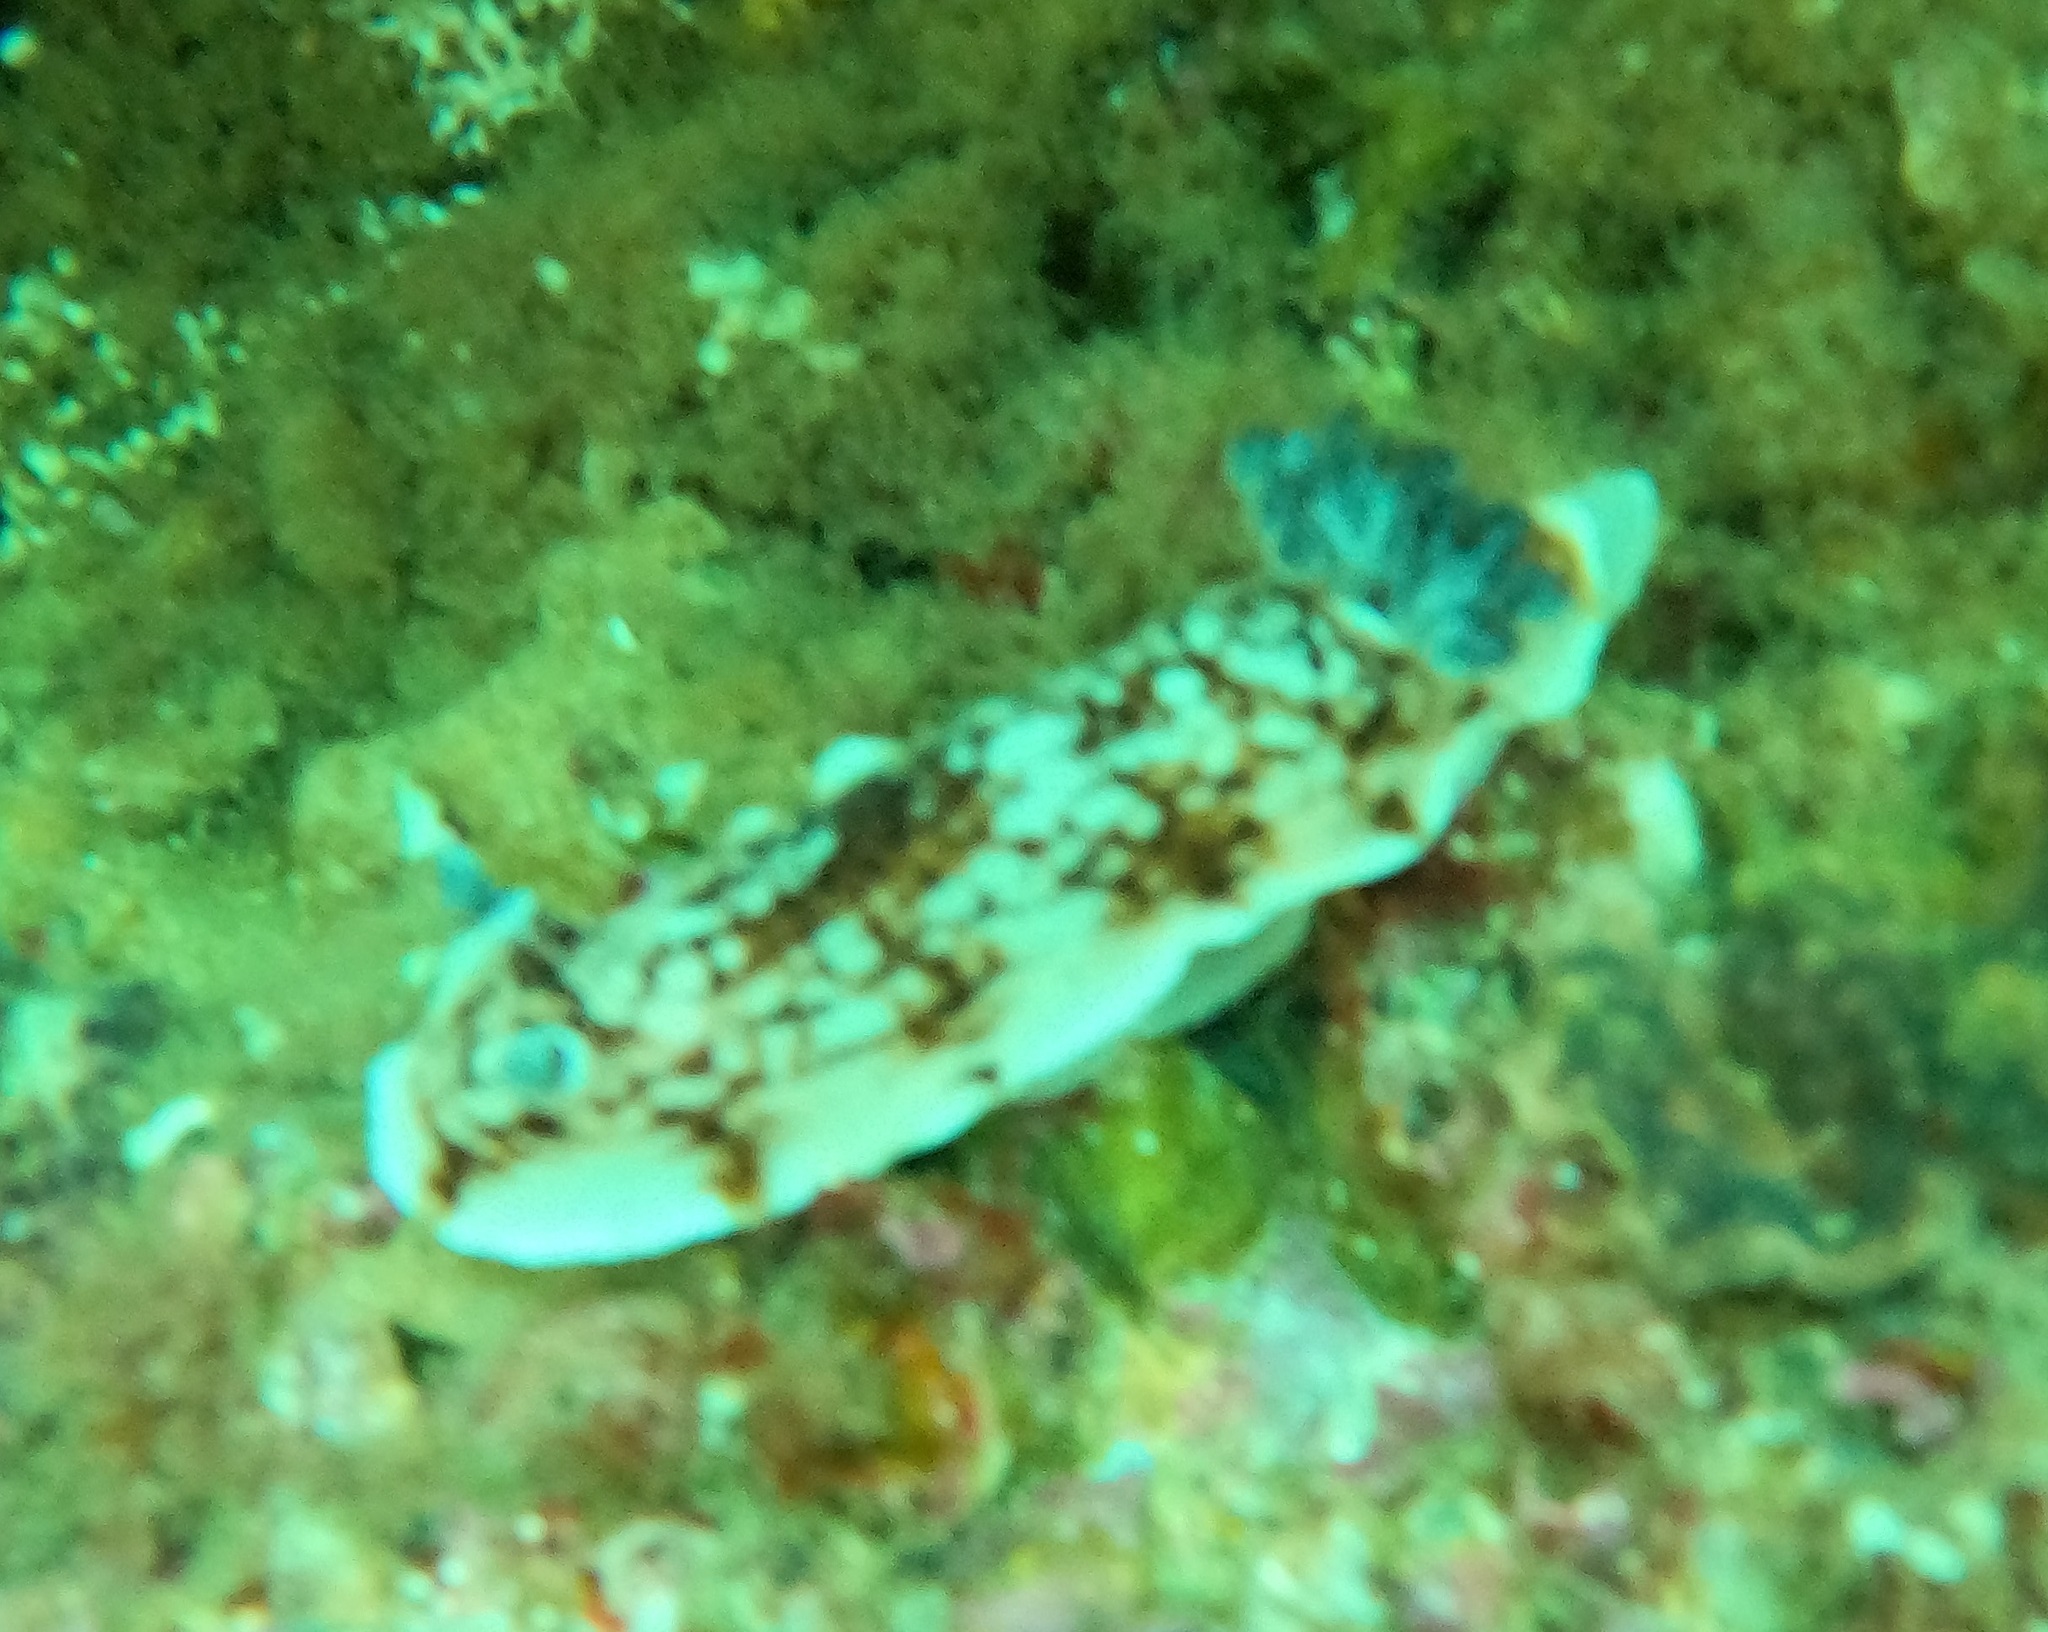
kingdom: Animalia
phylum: Mollusca
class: Gastropoda
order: Nudibranchia
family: Dorididae
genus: Aphelodoris
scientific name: Aphelodoris varia
